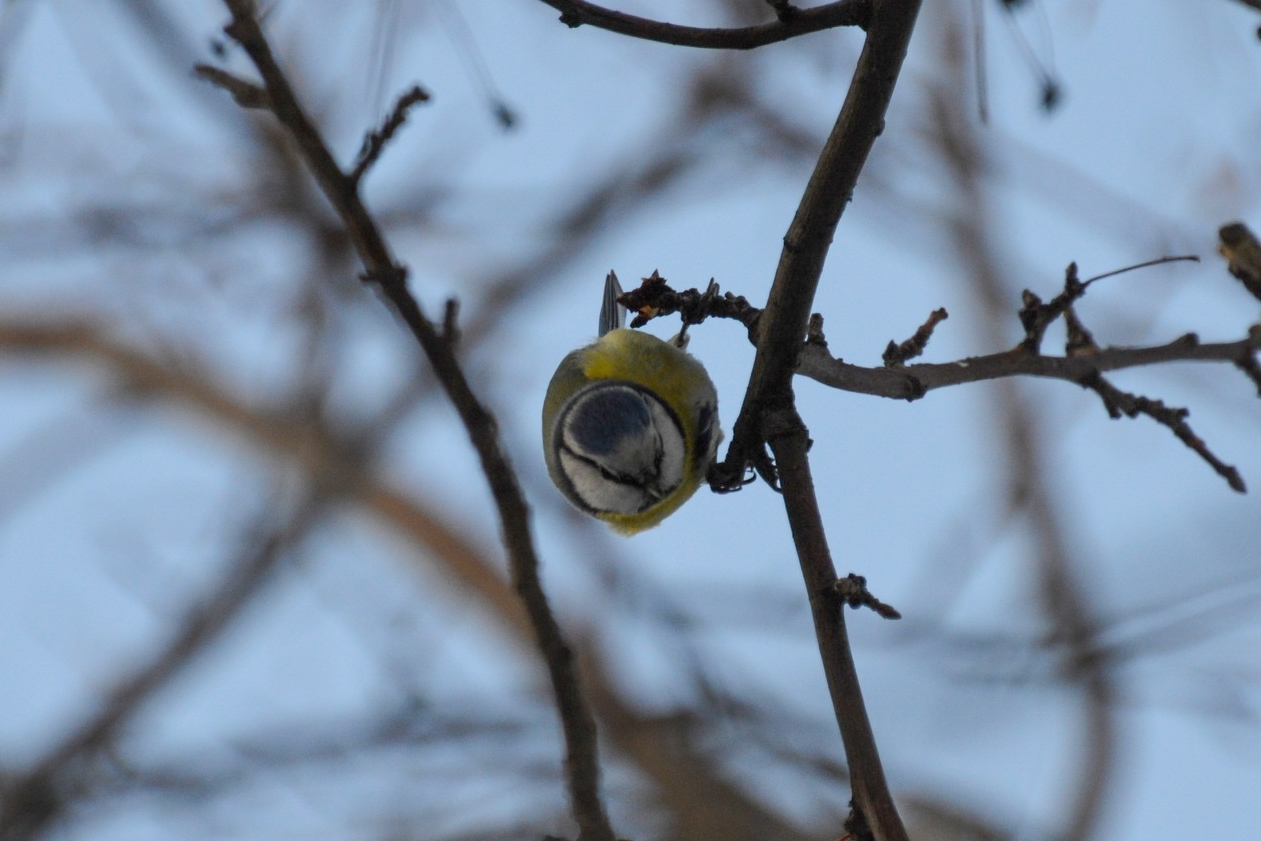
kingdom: Animalia
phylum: Chordata
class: Aves
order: Passeriformes
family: Paridae
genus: Cyanistes
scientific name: Cyanistes caeruleus
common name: Eurasian blue tit
